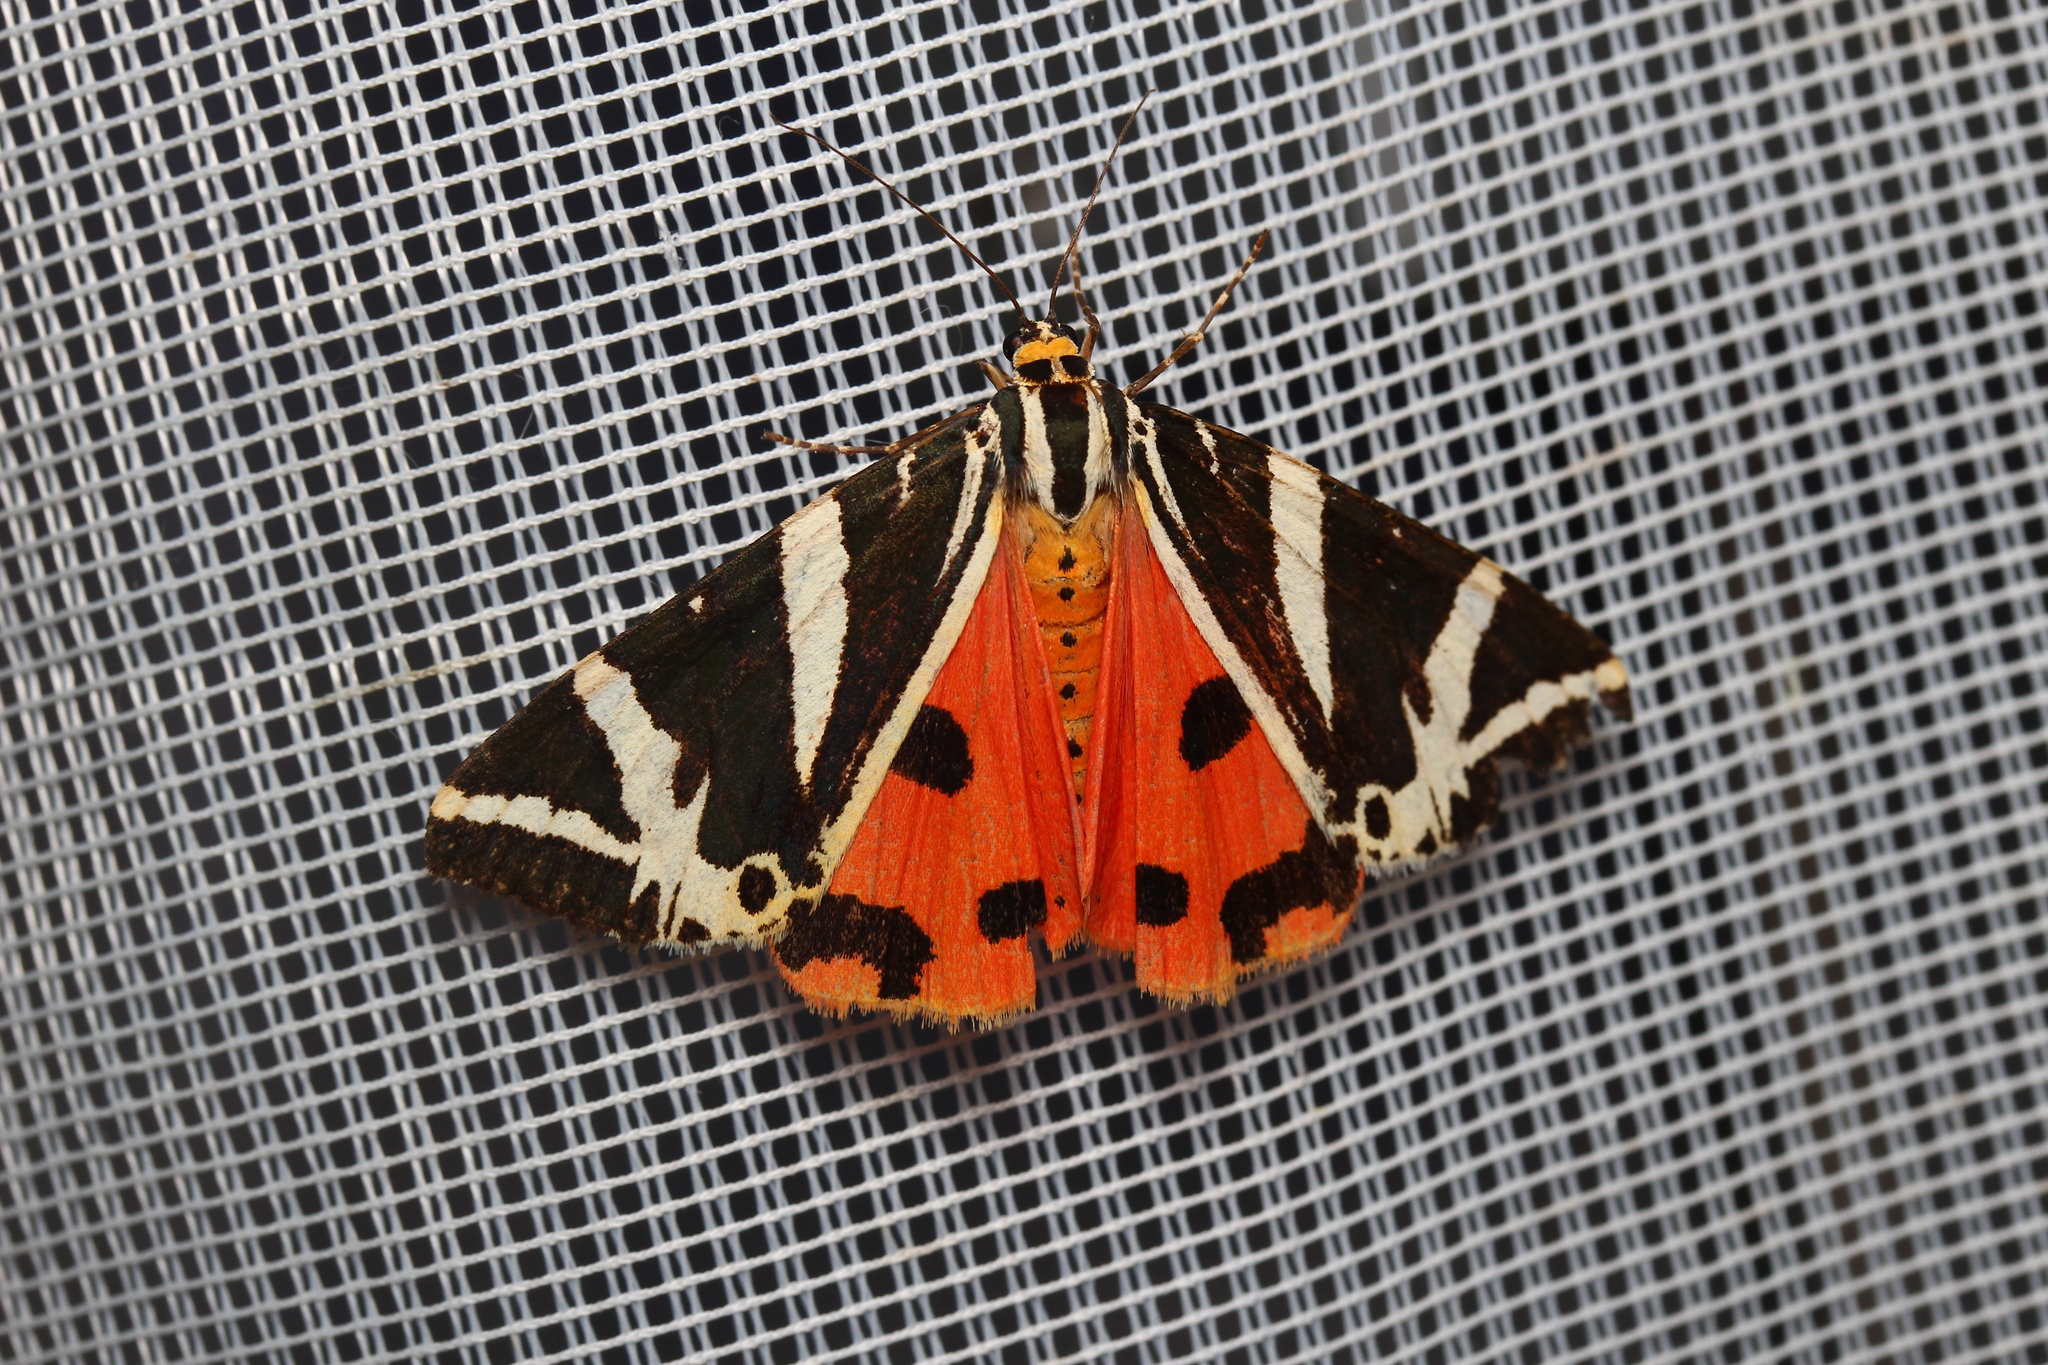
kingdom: Animalia
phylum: Arthropoda
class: Insecta
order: Lepidoptera
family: Erebidae
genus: Euplagia
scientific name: Euplagia quadripunctaria
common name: Jersey tiger
